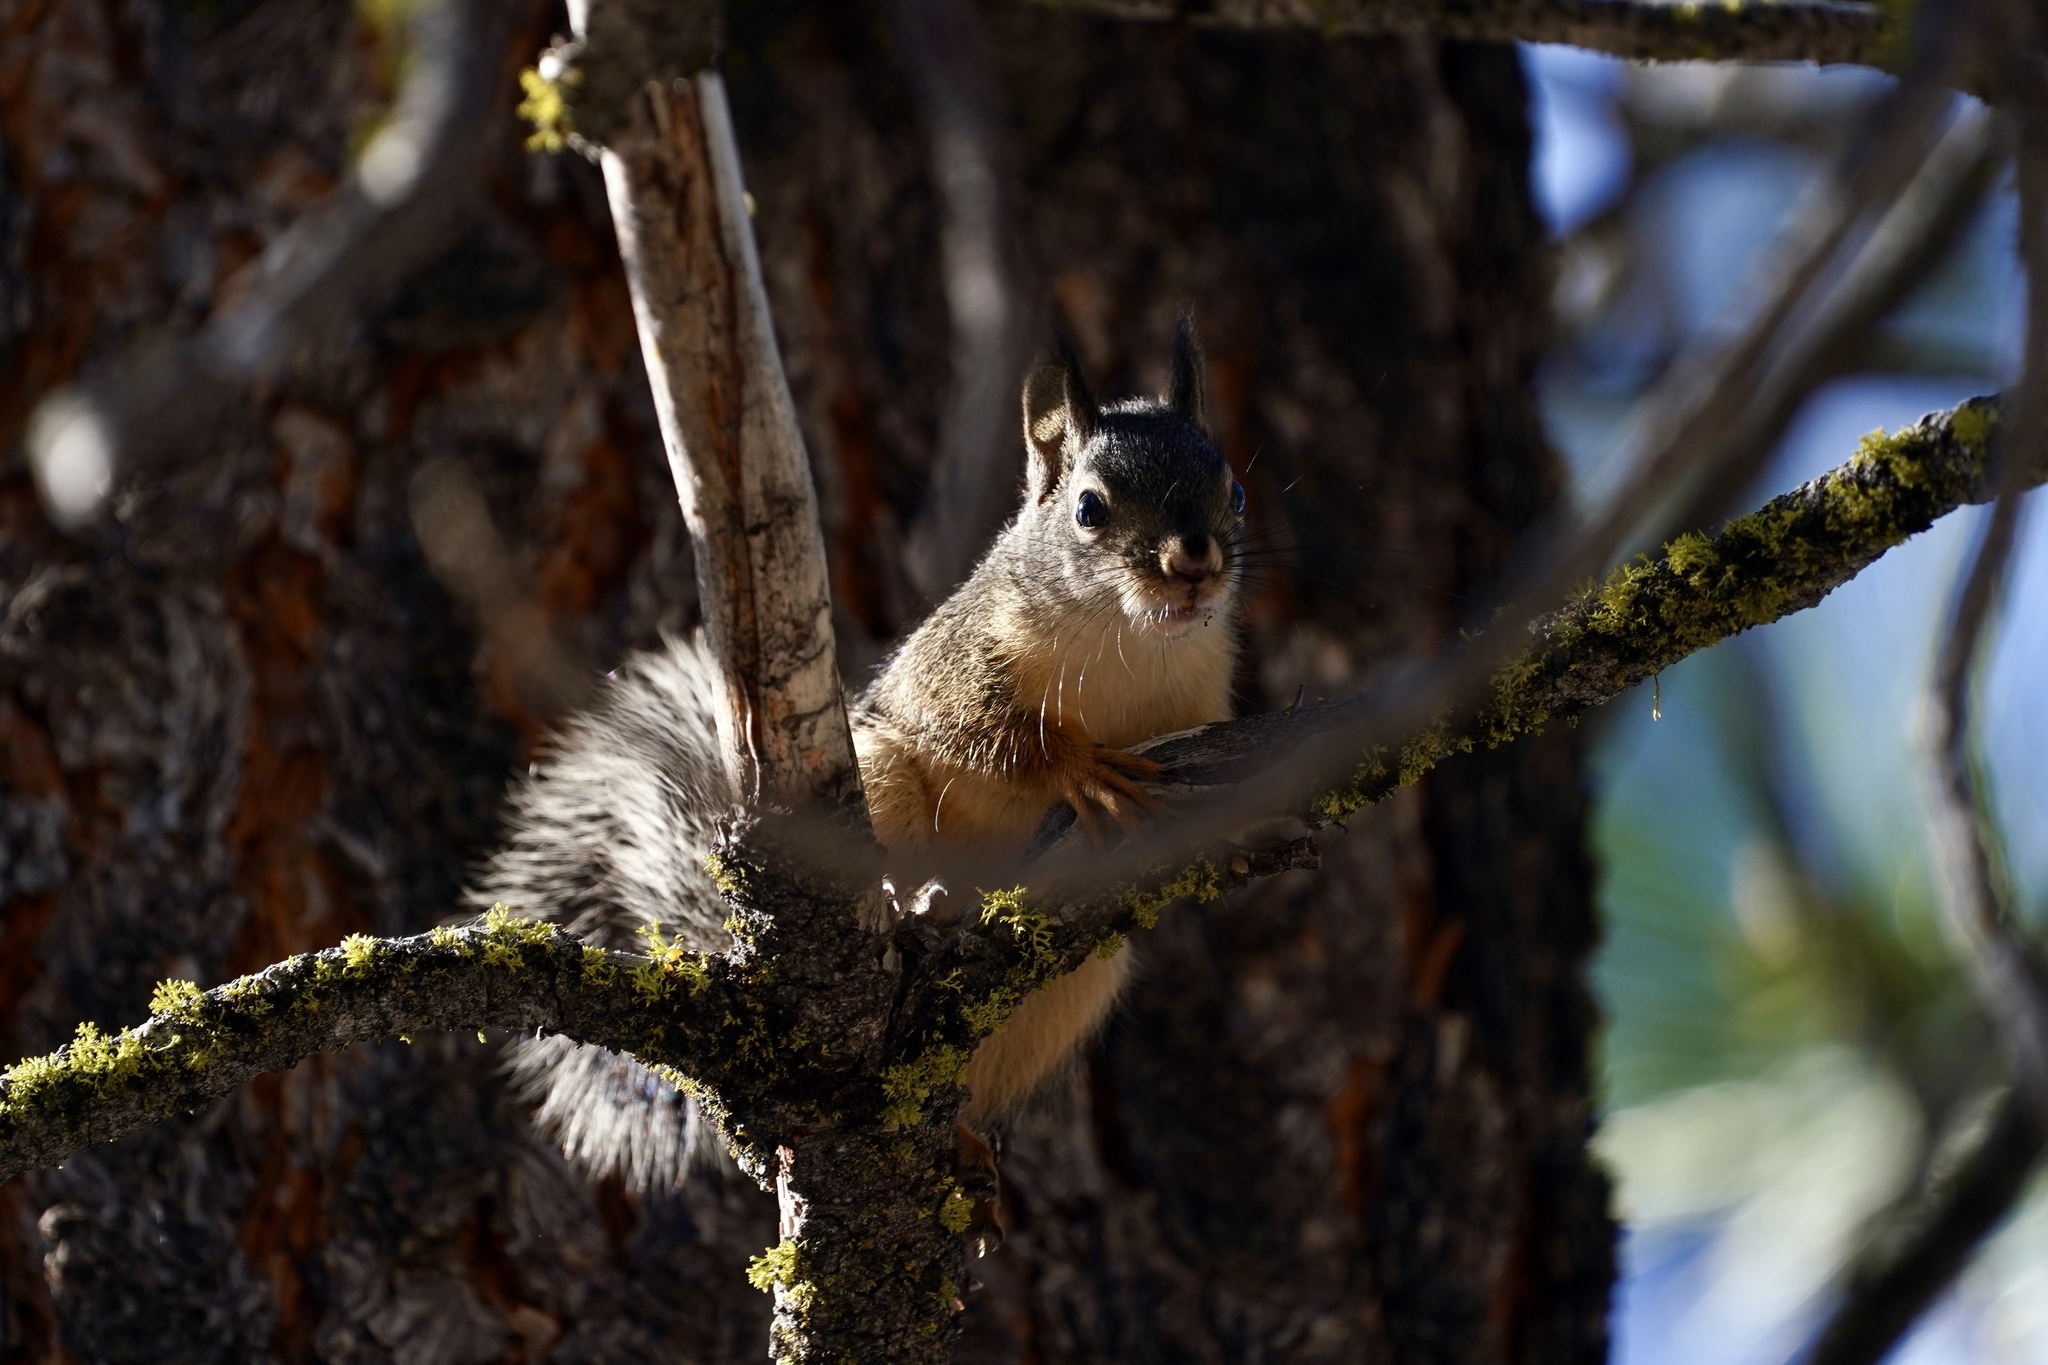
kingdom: Animalia
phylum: Chordata
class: Mammalia
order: Rodentia
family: Sciuridae
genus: Tamiasciurus
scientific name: Tamiasciurus douglasii
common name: Douglas's squirrel
